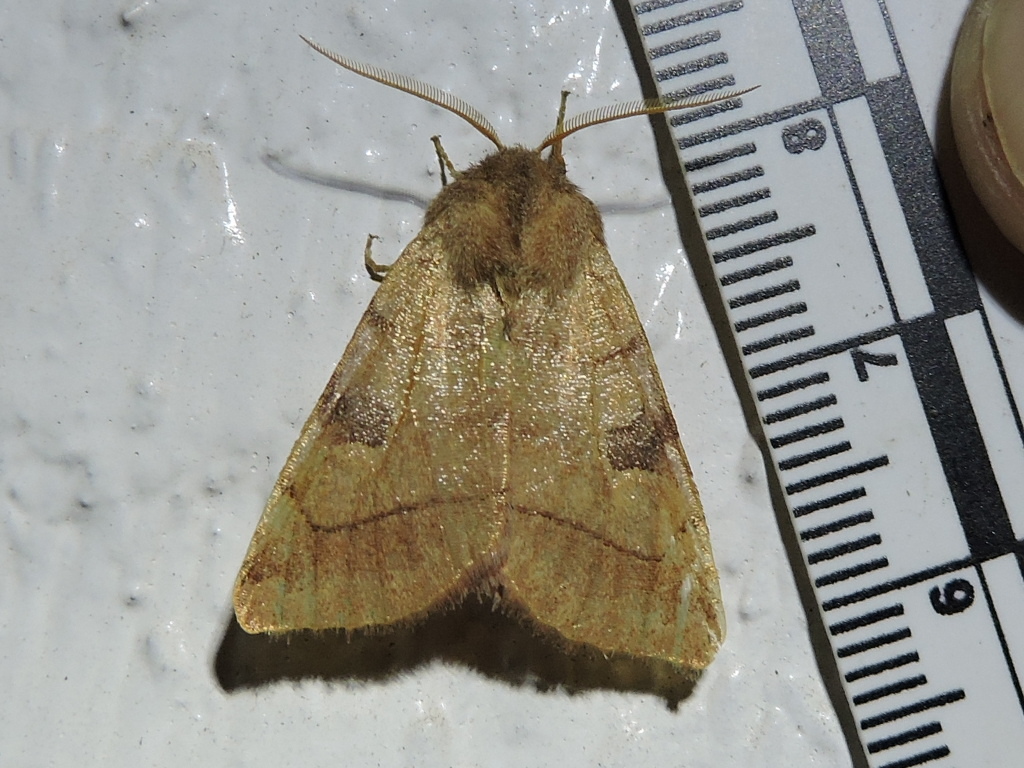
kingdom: Animalia
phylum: Arthropoda
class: Insecta
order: Lepidoptera
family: Noctuidae
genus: Choephora
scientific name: Choephora fungorum
